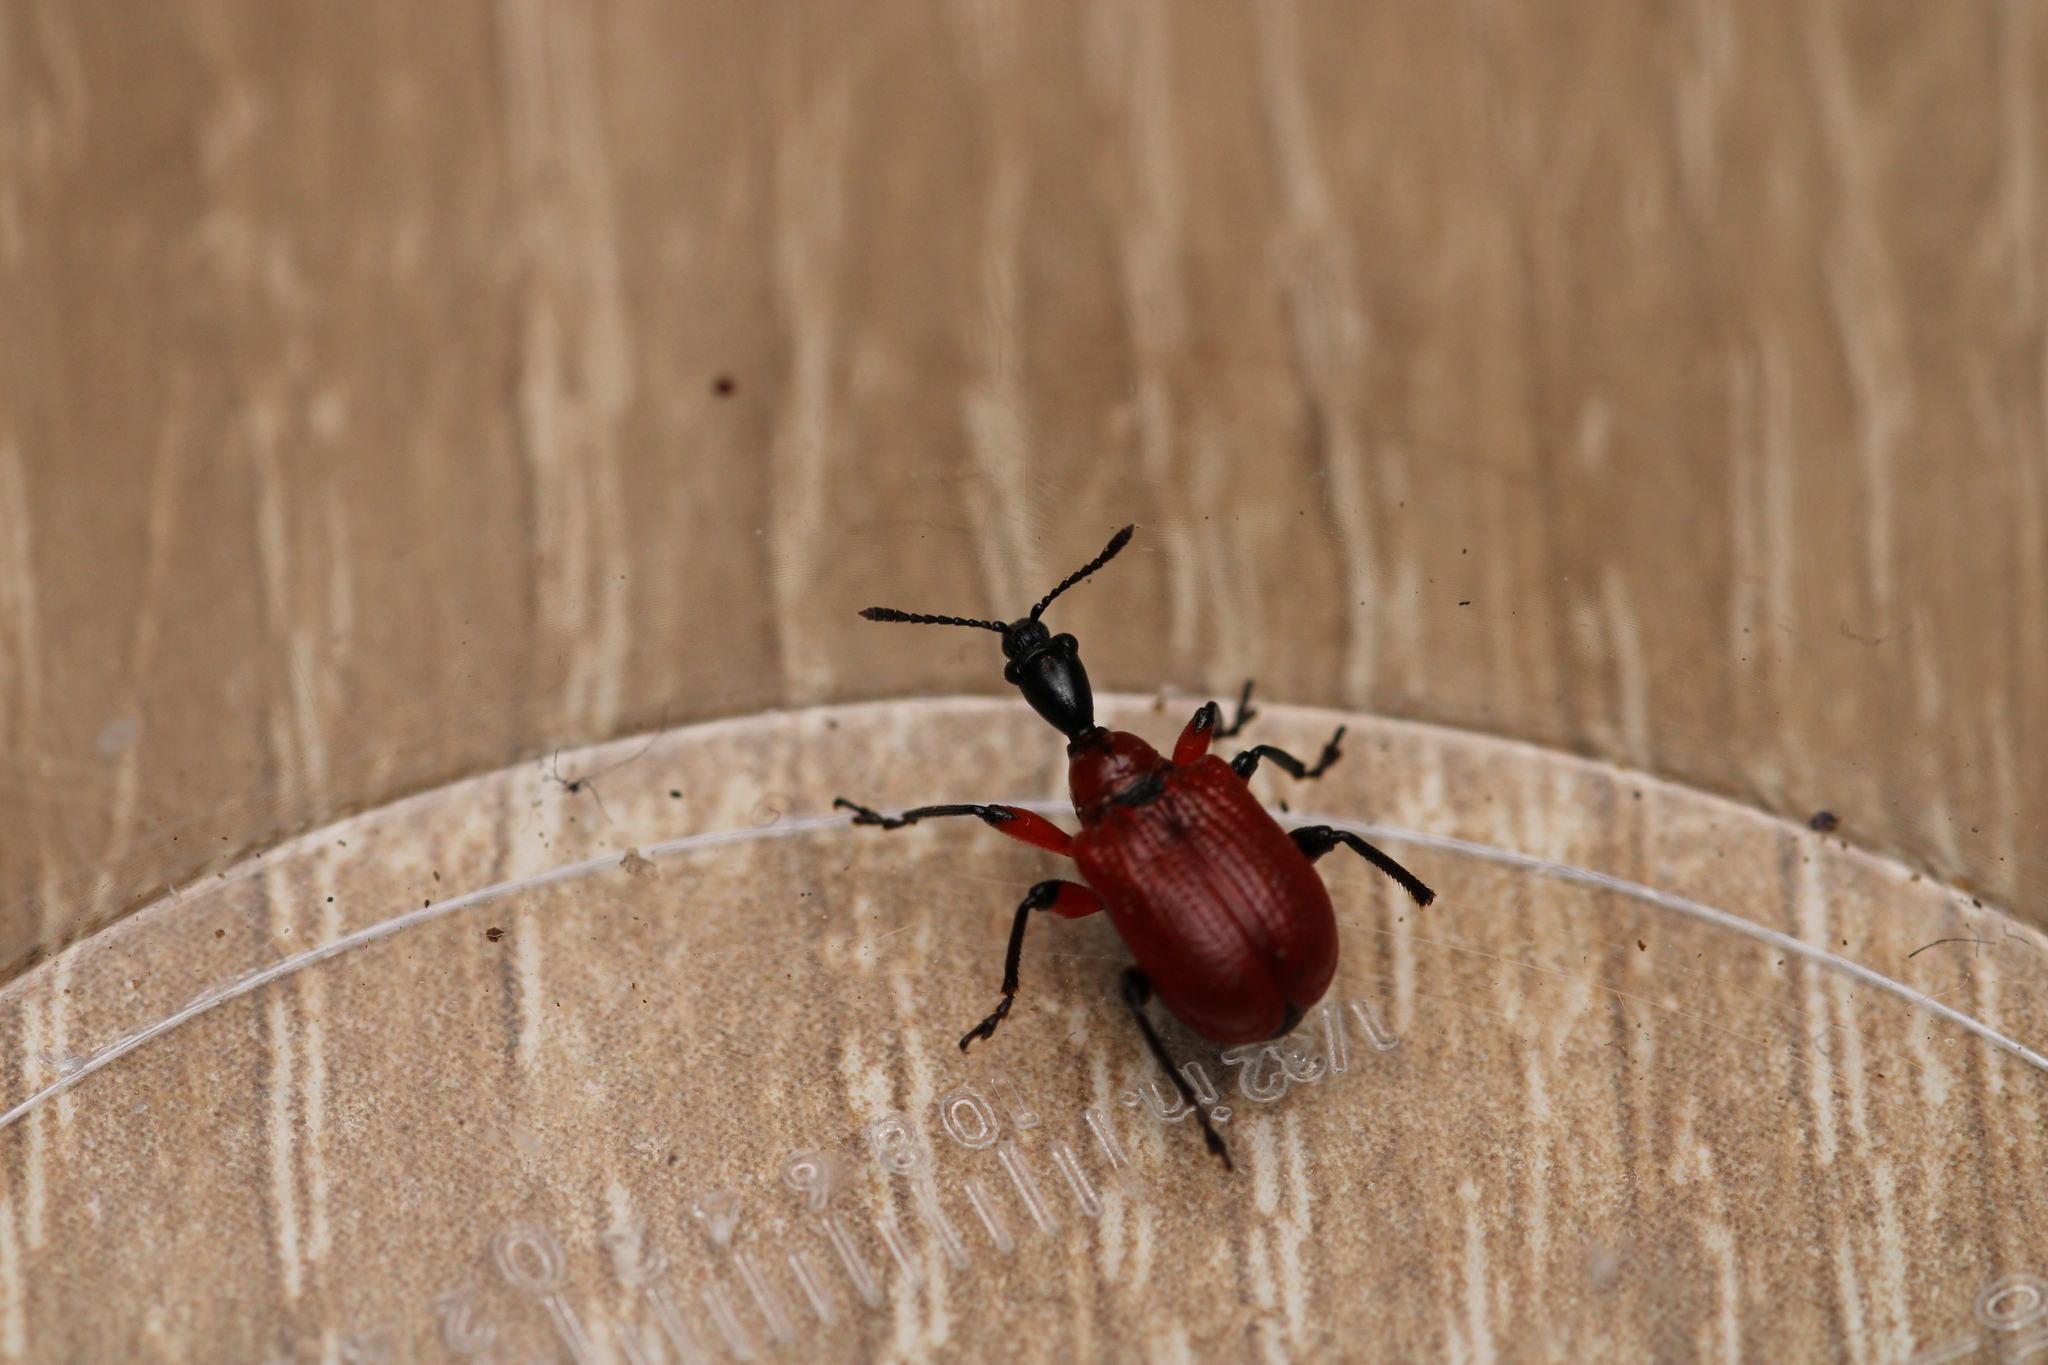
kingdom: Animalia
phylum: Arthropoda
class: Insecta
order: Coleoptera
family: Attelabidae
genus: Apoderus
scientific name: Apoderus coryli
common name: Hazel leaf roller
